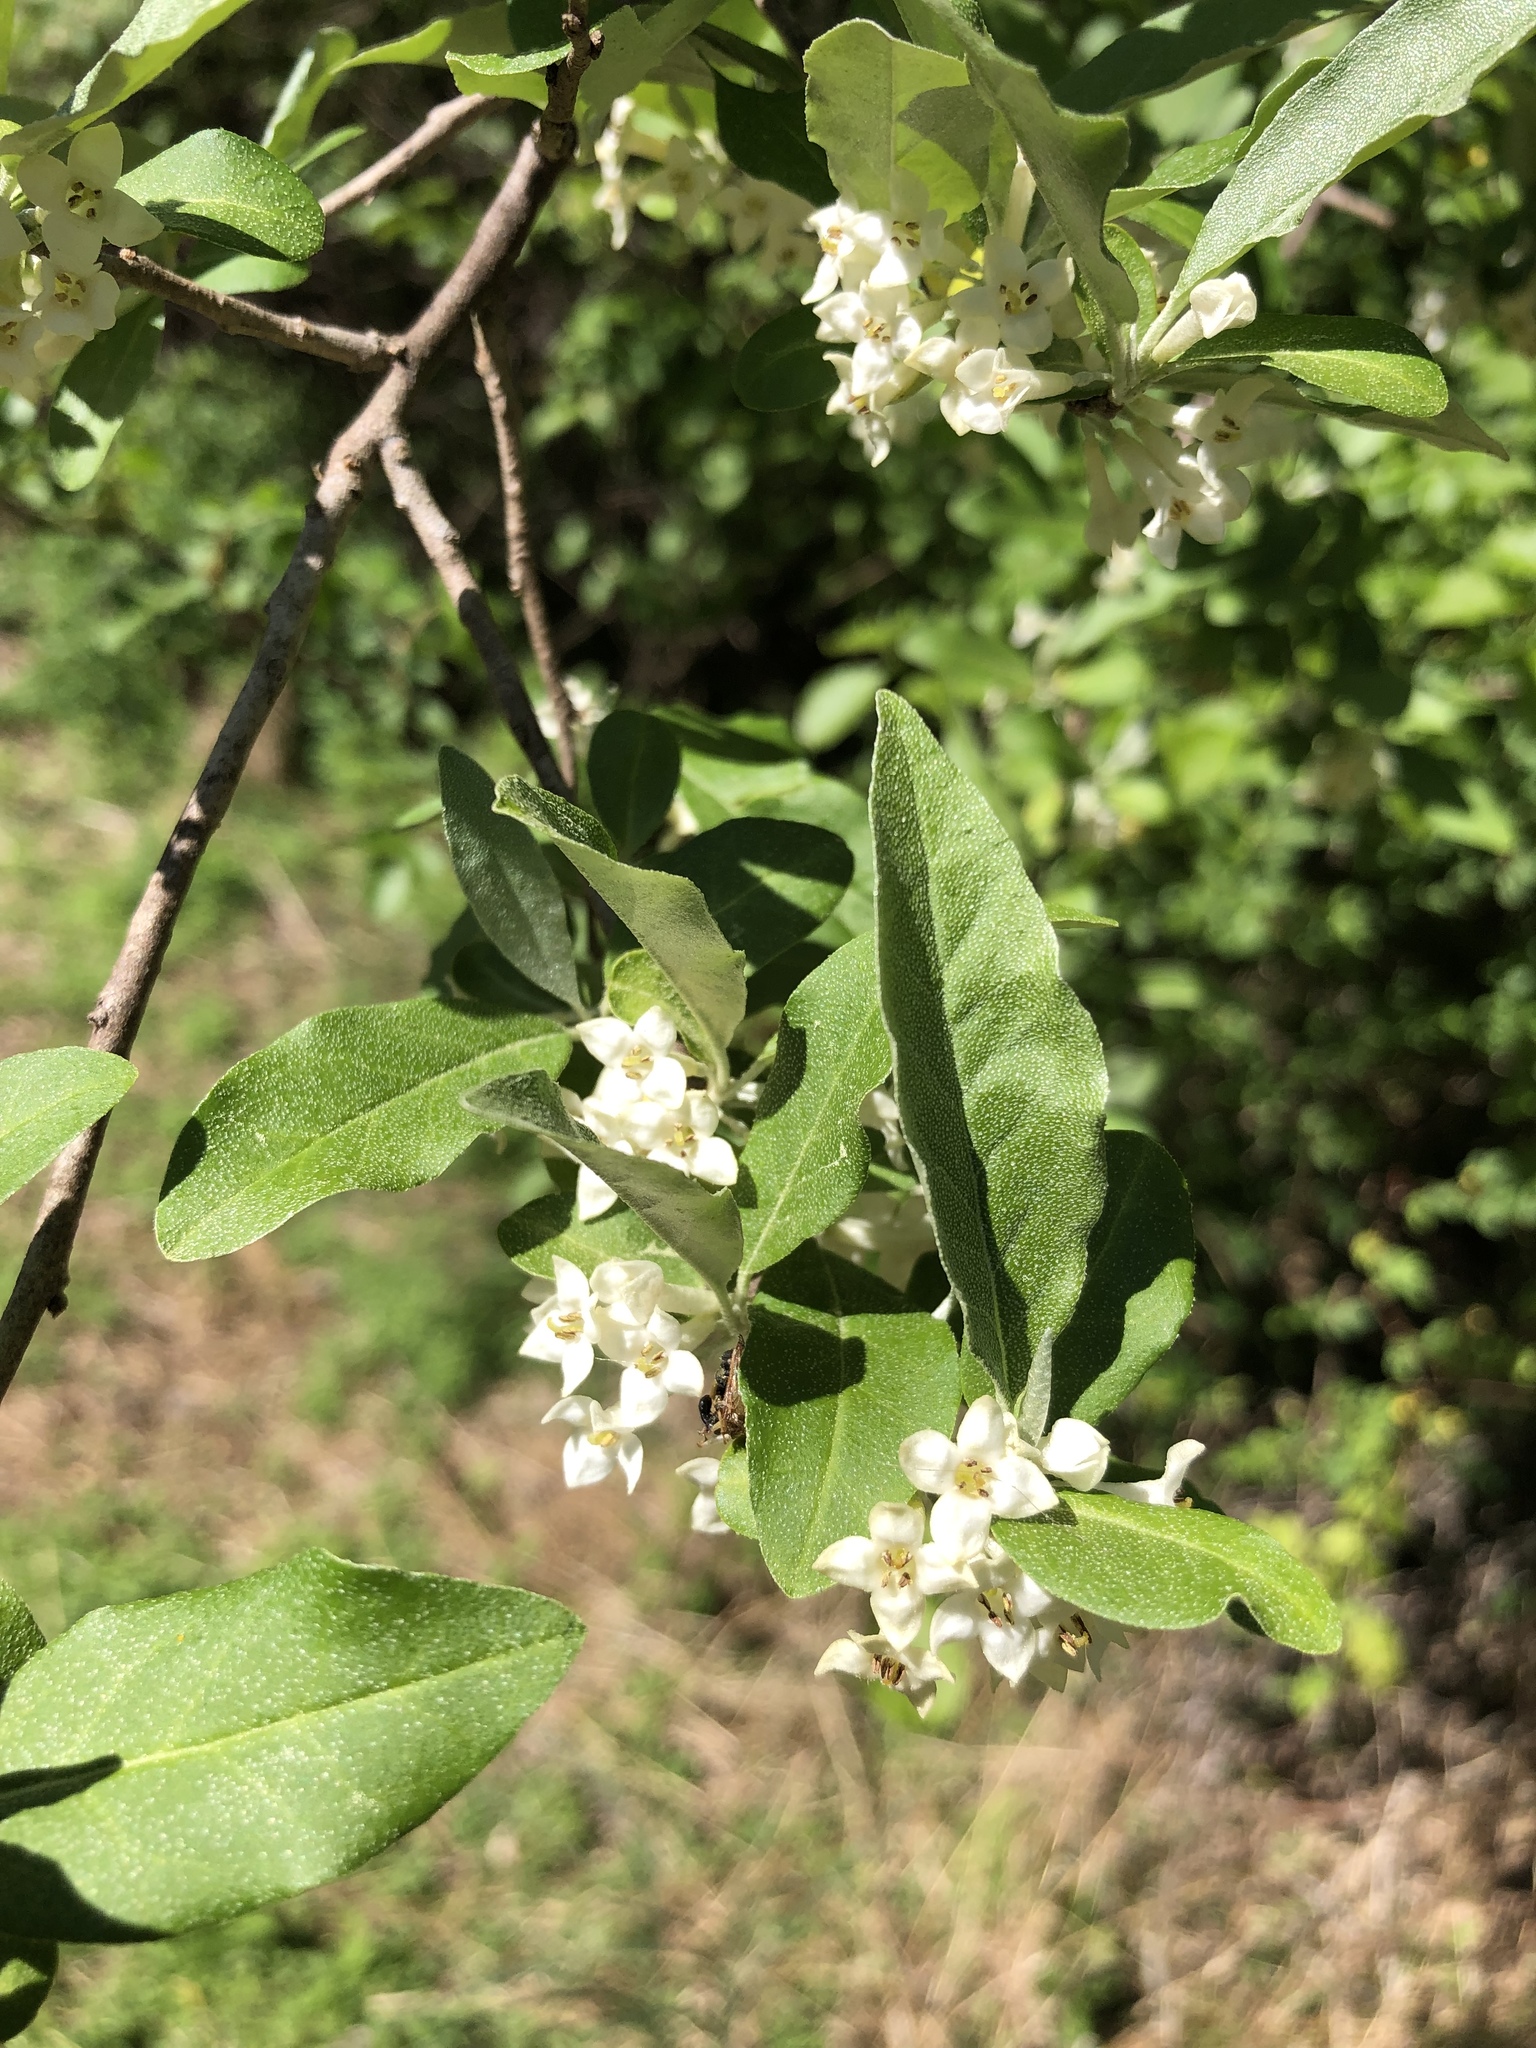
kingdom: Plantae
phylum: Tracheophyta
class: Magnoliopsida
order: Rosales
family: Elaeagnaceae
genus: Elaeagnus
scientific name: Elaeagnus umbellata
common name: Autumn olive
